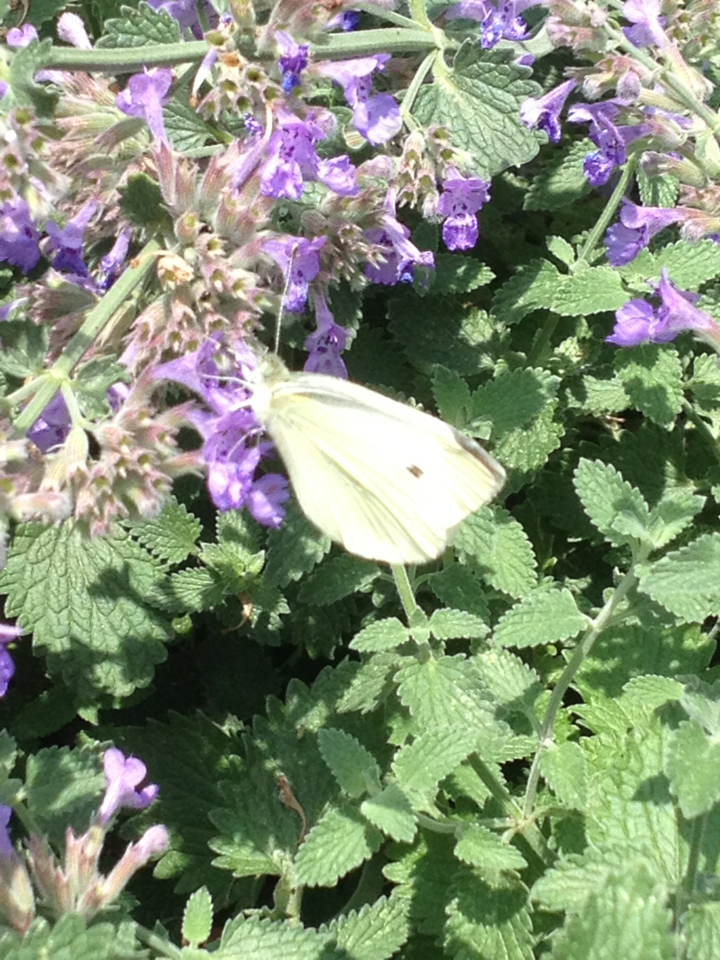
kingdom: Animalia
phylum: Arthropoda
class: Insecta
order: Lepidoptera
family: Pieridae
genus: Pieris
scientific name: Pieris rapae
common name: Small white
